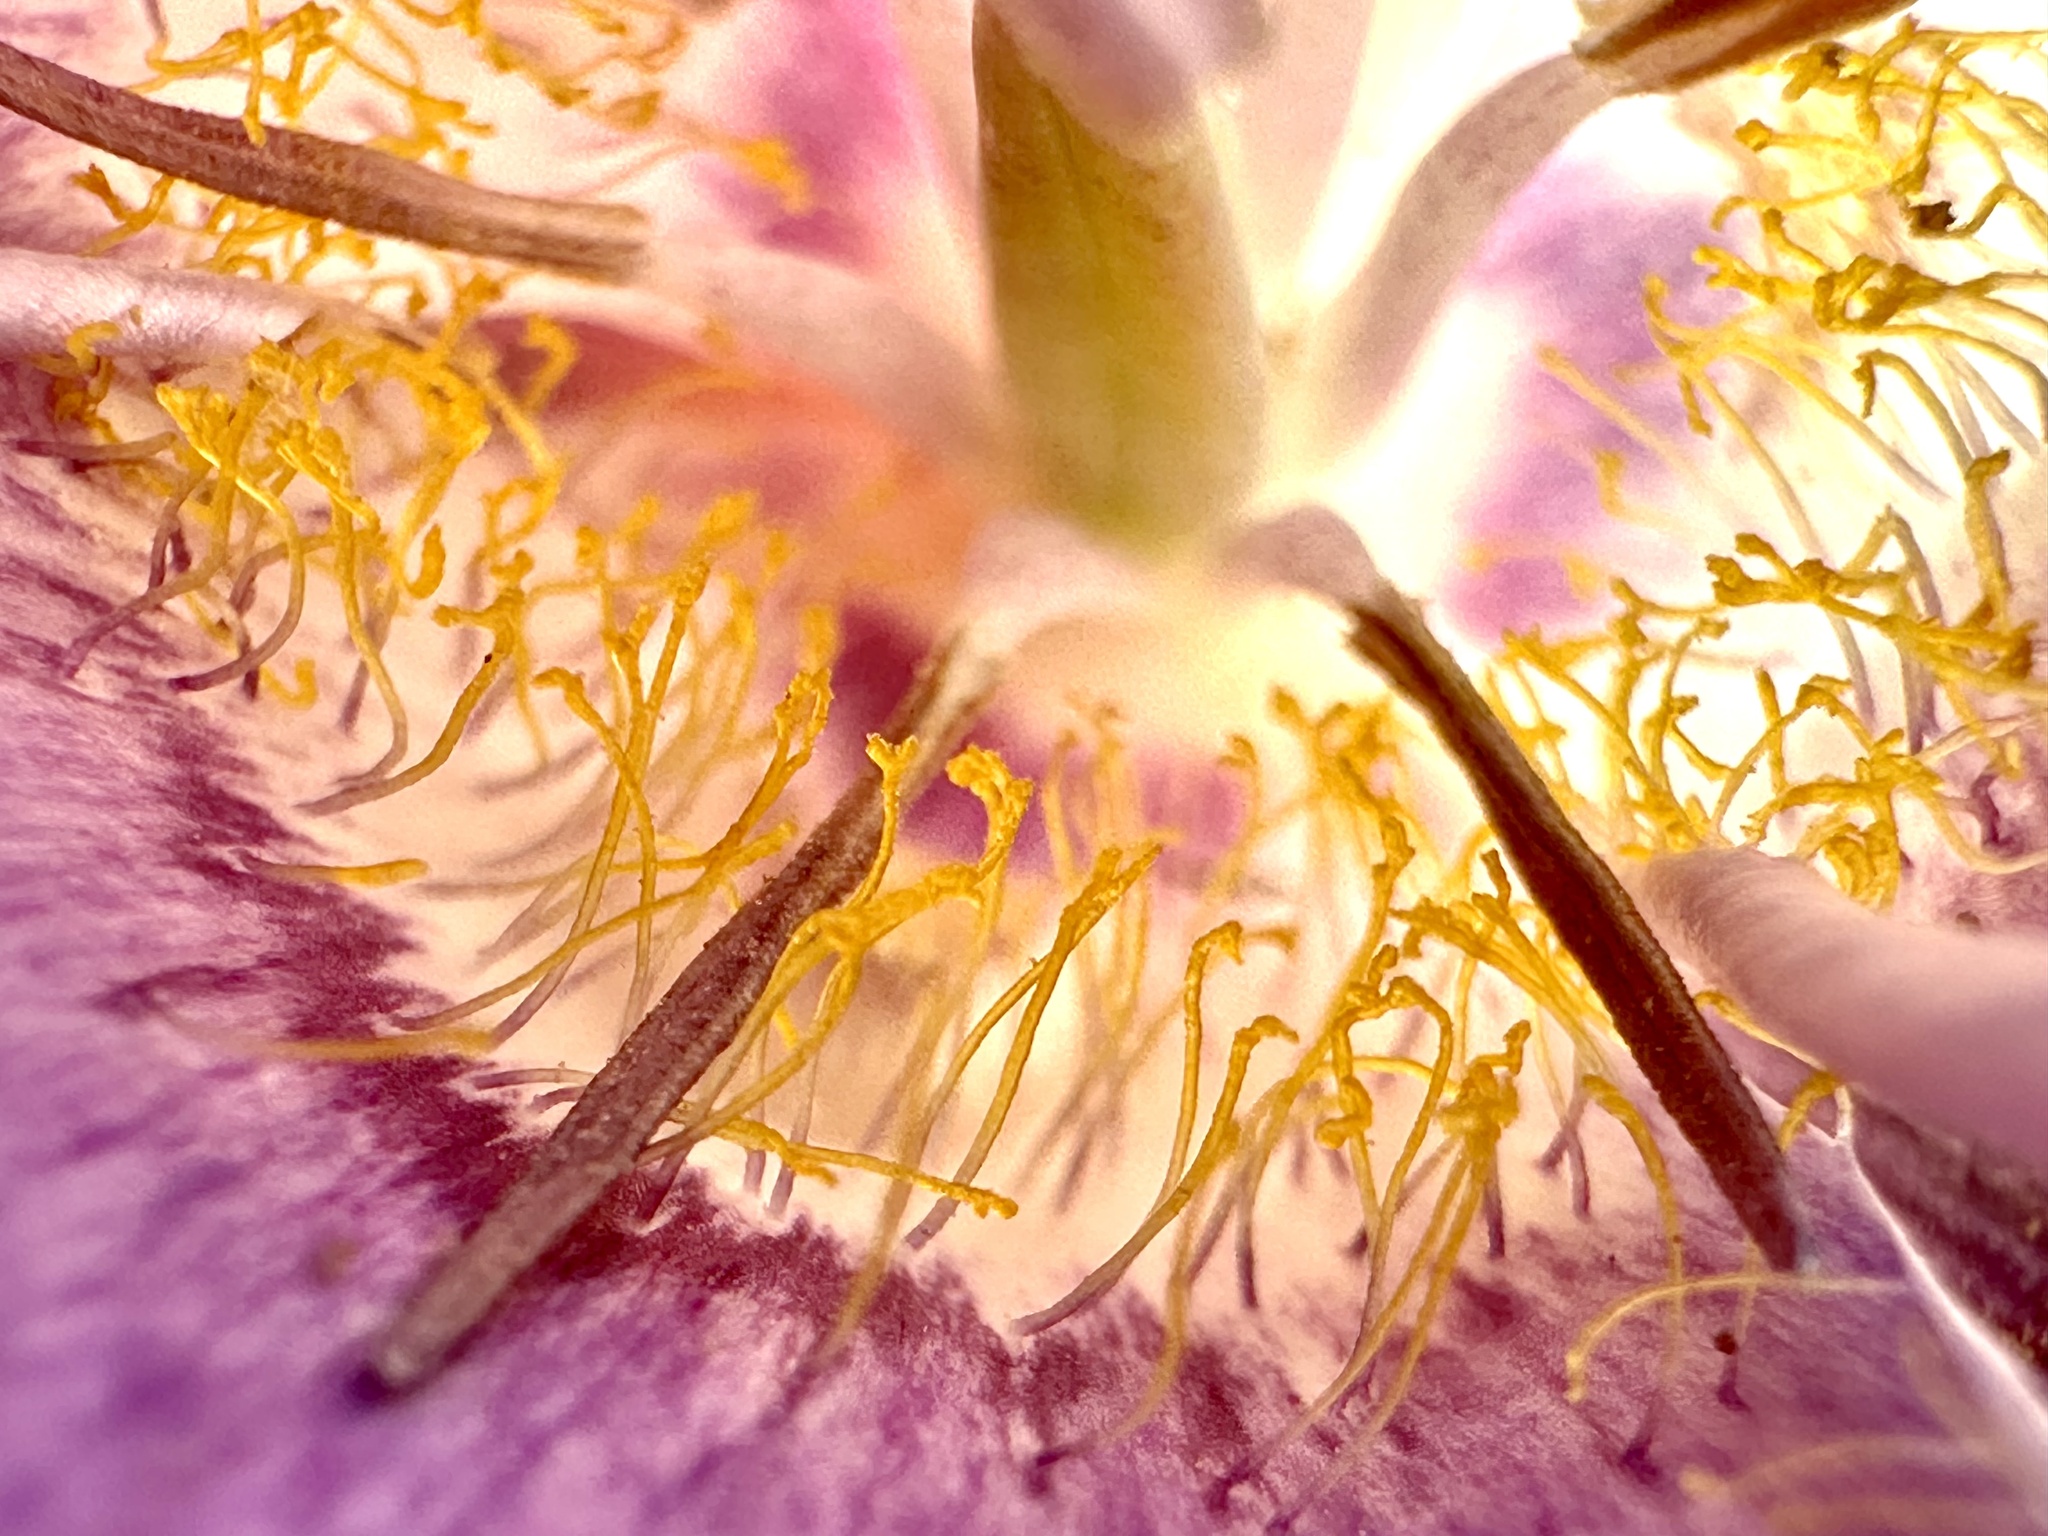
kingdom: Plantae
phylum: Tracheophyta
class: Liliopsida
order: Liliales
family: Liliaceae
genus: Calochortus
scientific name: Calochortus macrocarpus
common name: Green-band mariposa lily
